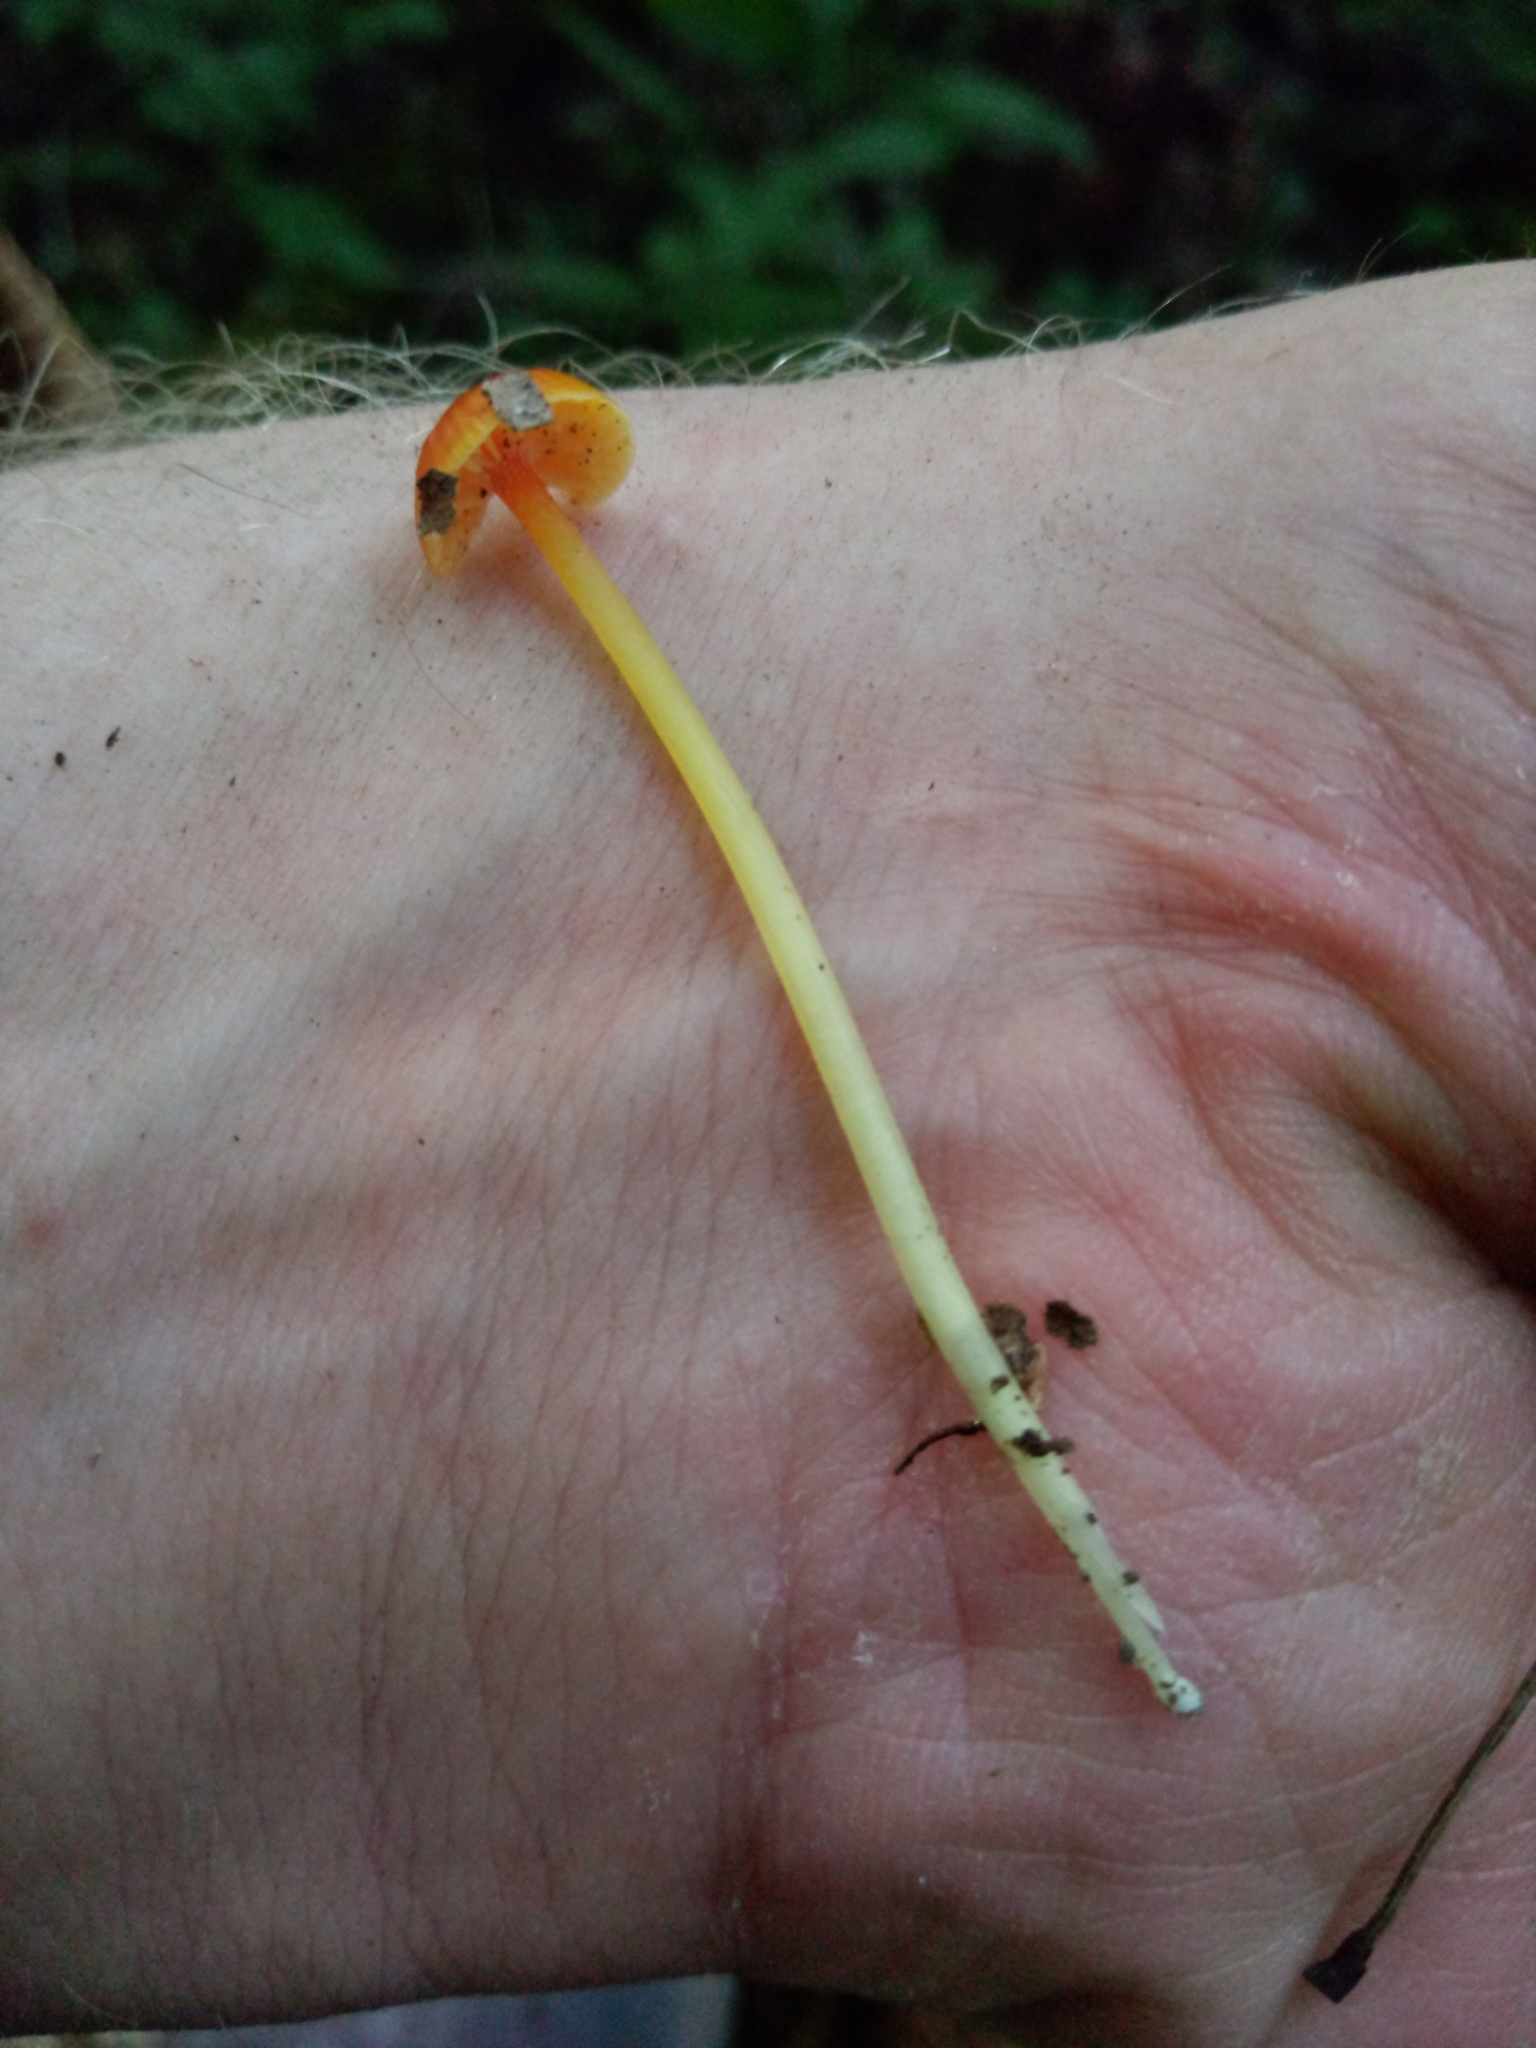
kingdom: Fungi
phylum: Basidiomycota
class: Agaricomycetes
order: Agaricales
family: Mycenaceae
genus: Mycena
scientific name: Mycena acicula
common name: Orange bonnet
